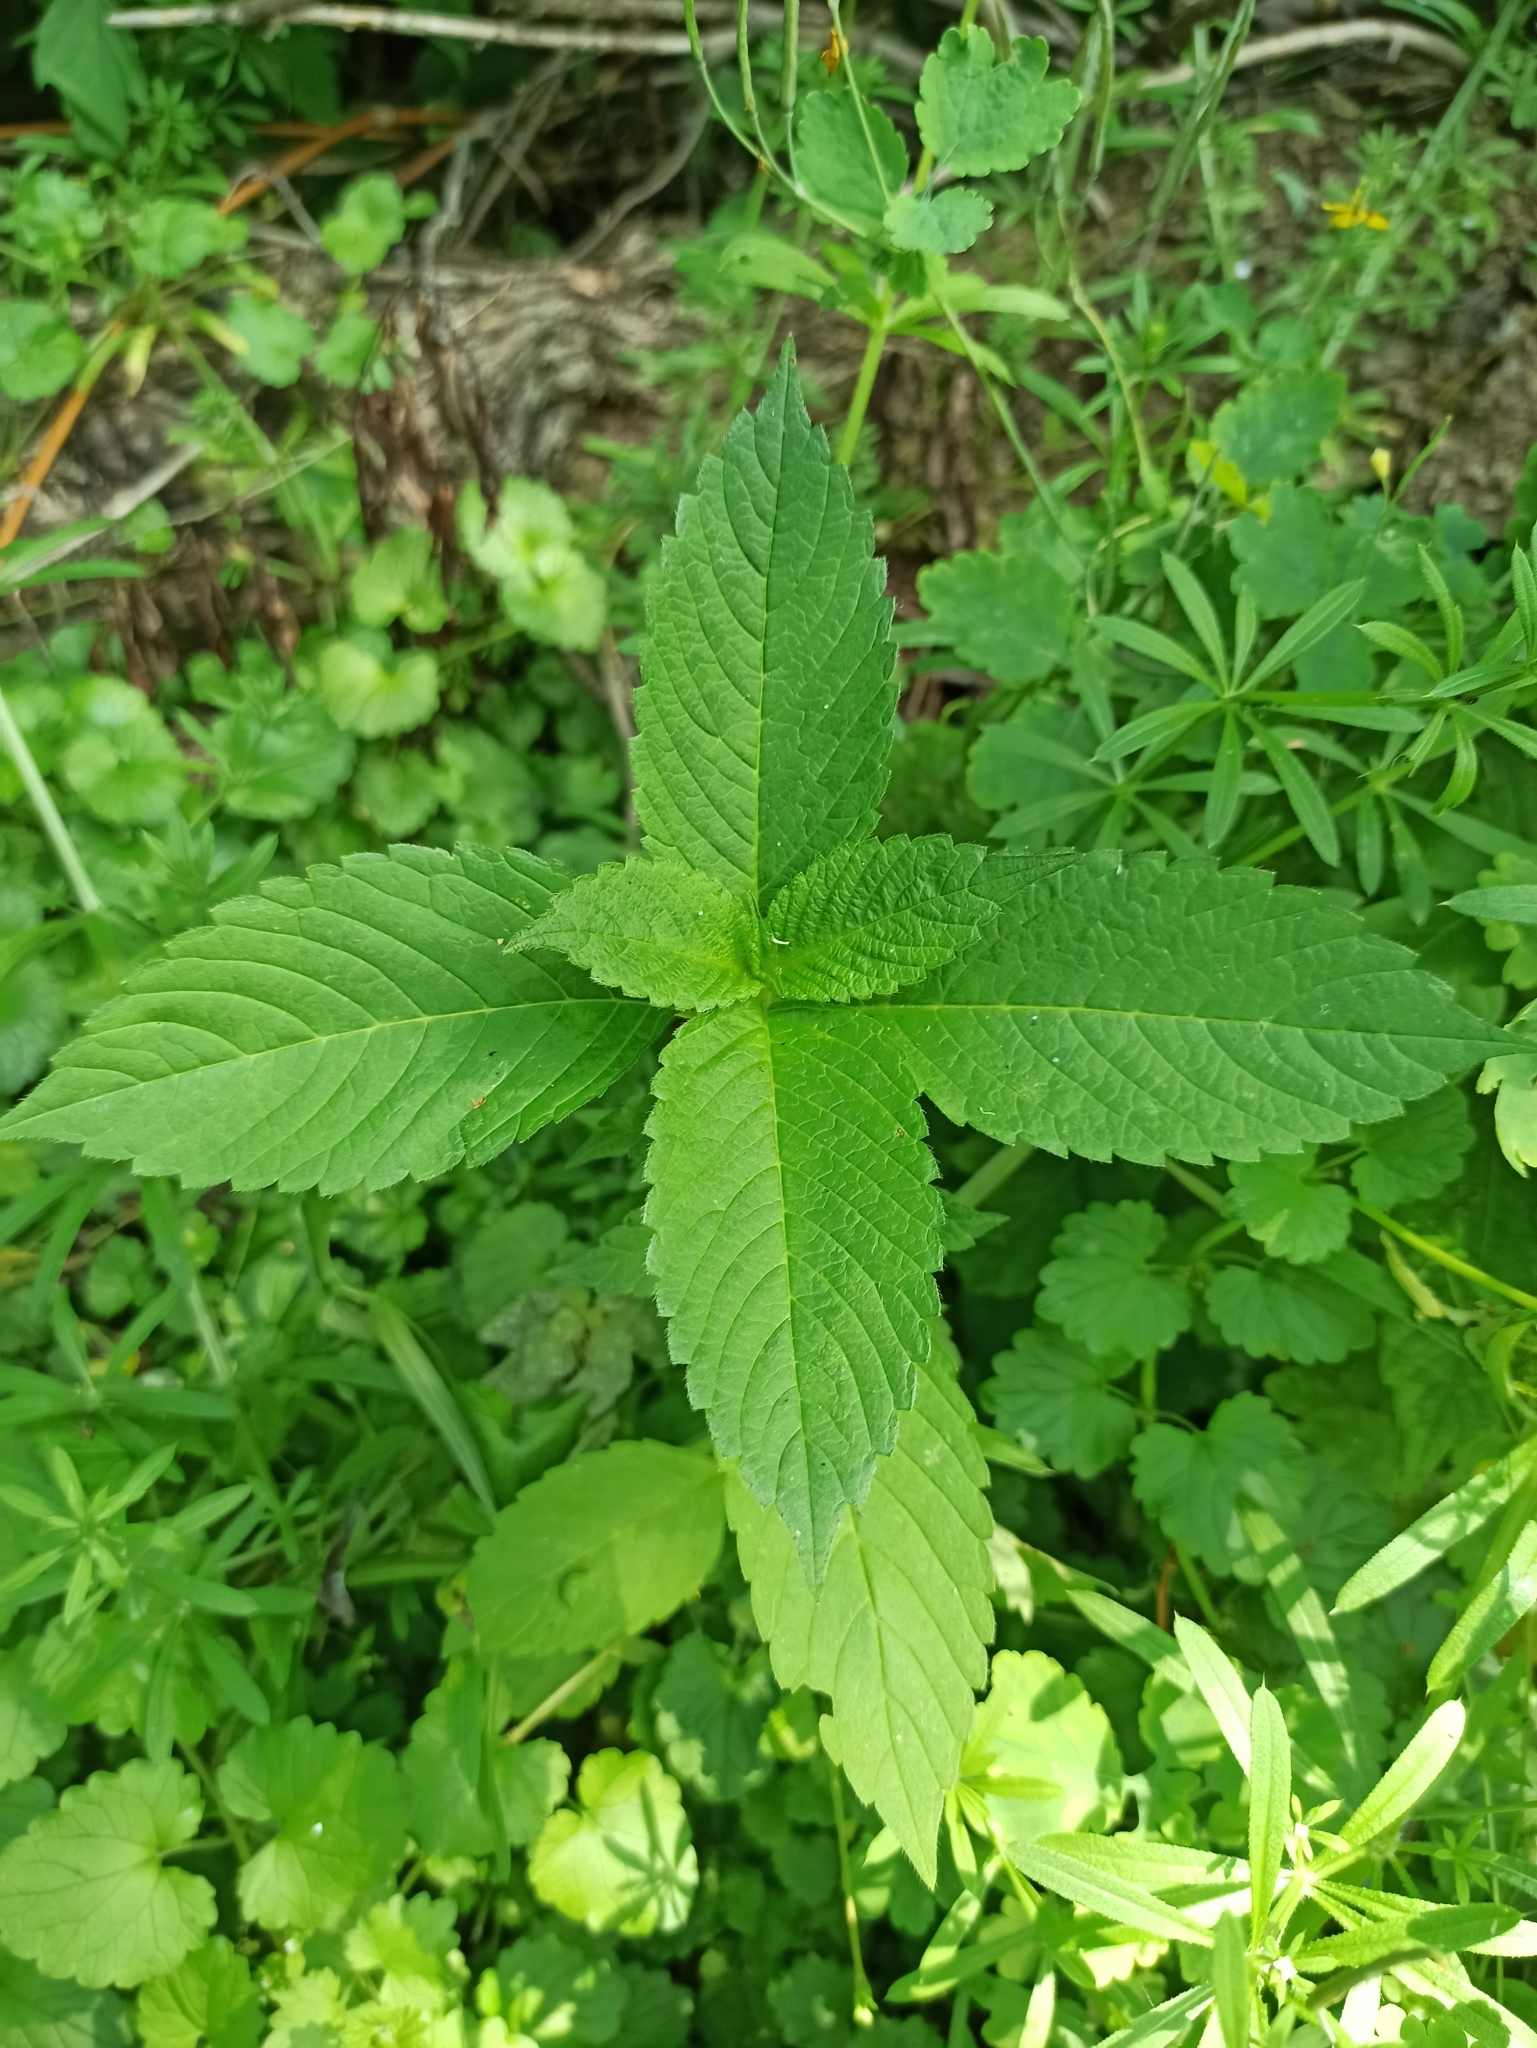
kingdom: Plantae
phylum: Tracheophyta
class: Magnoliopsida
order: Lamiales
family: Lamiaceae
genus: Galeopsis
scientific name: Galeopsis
